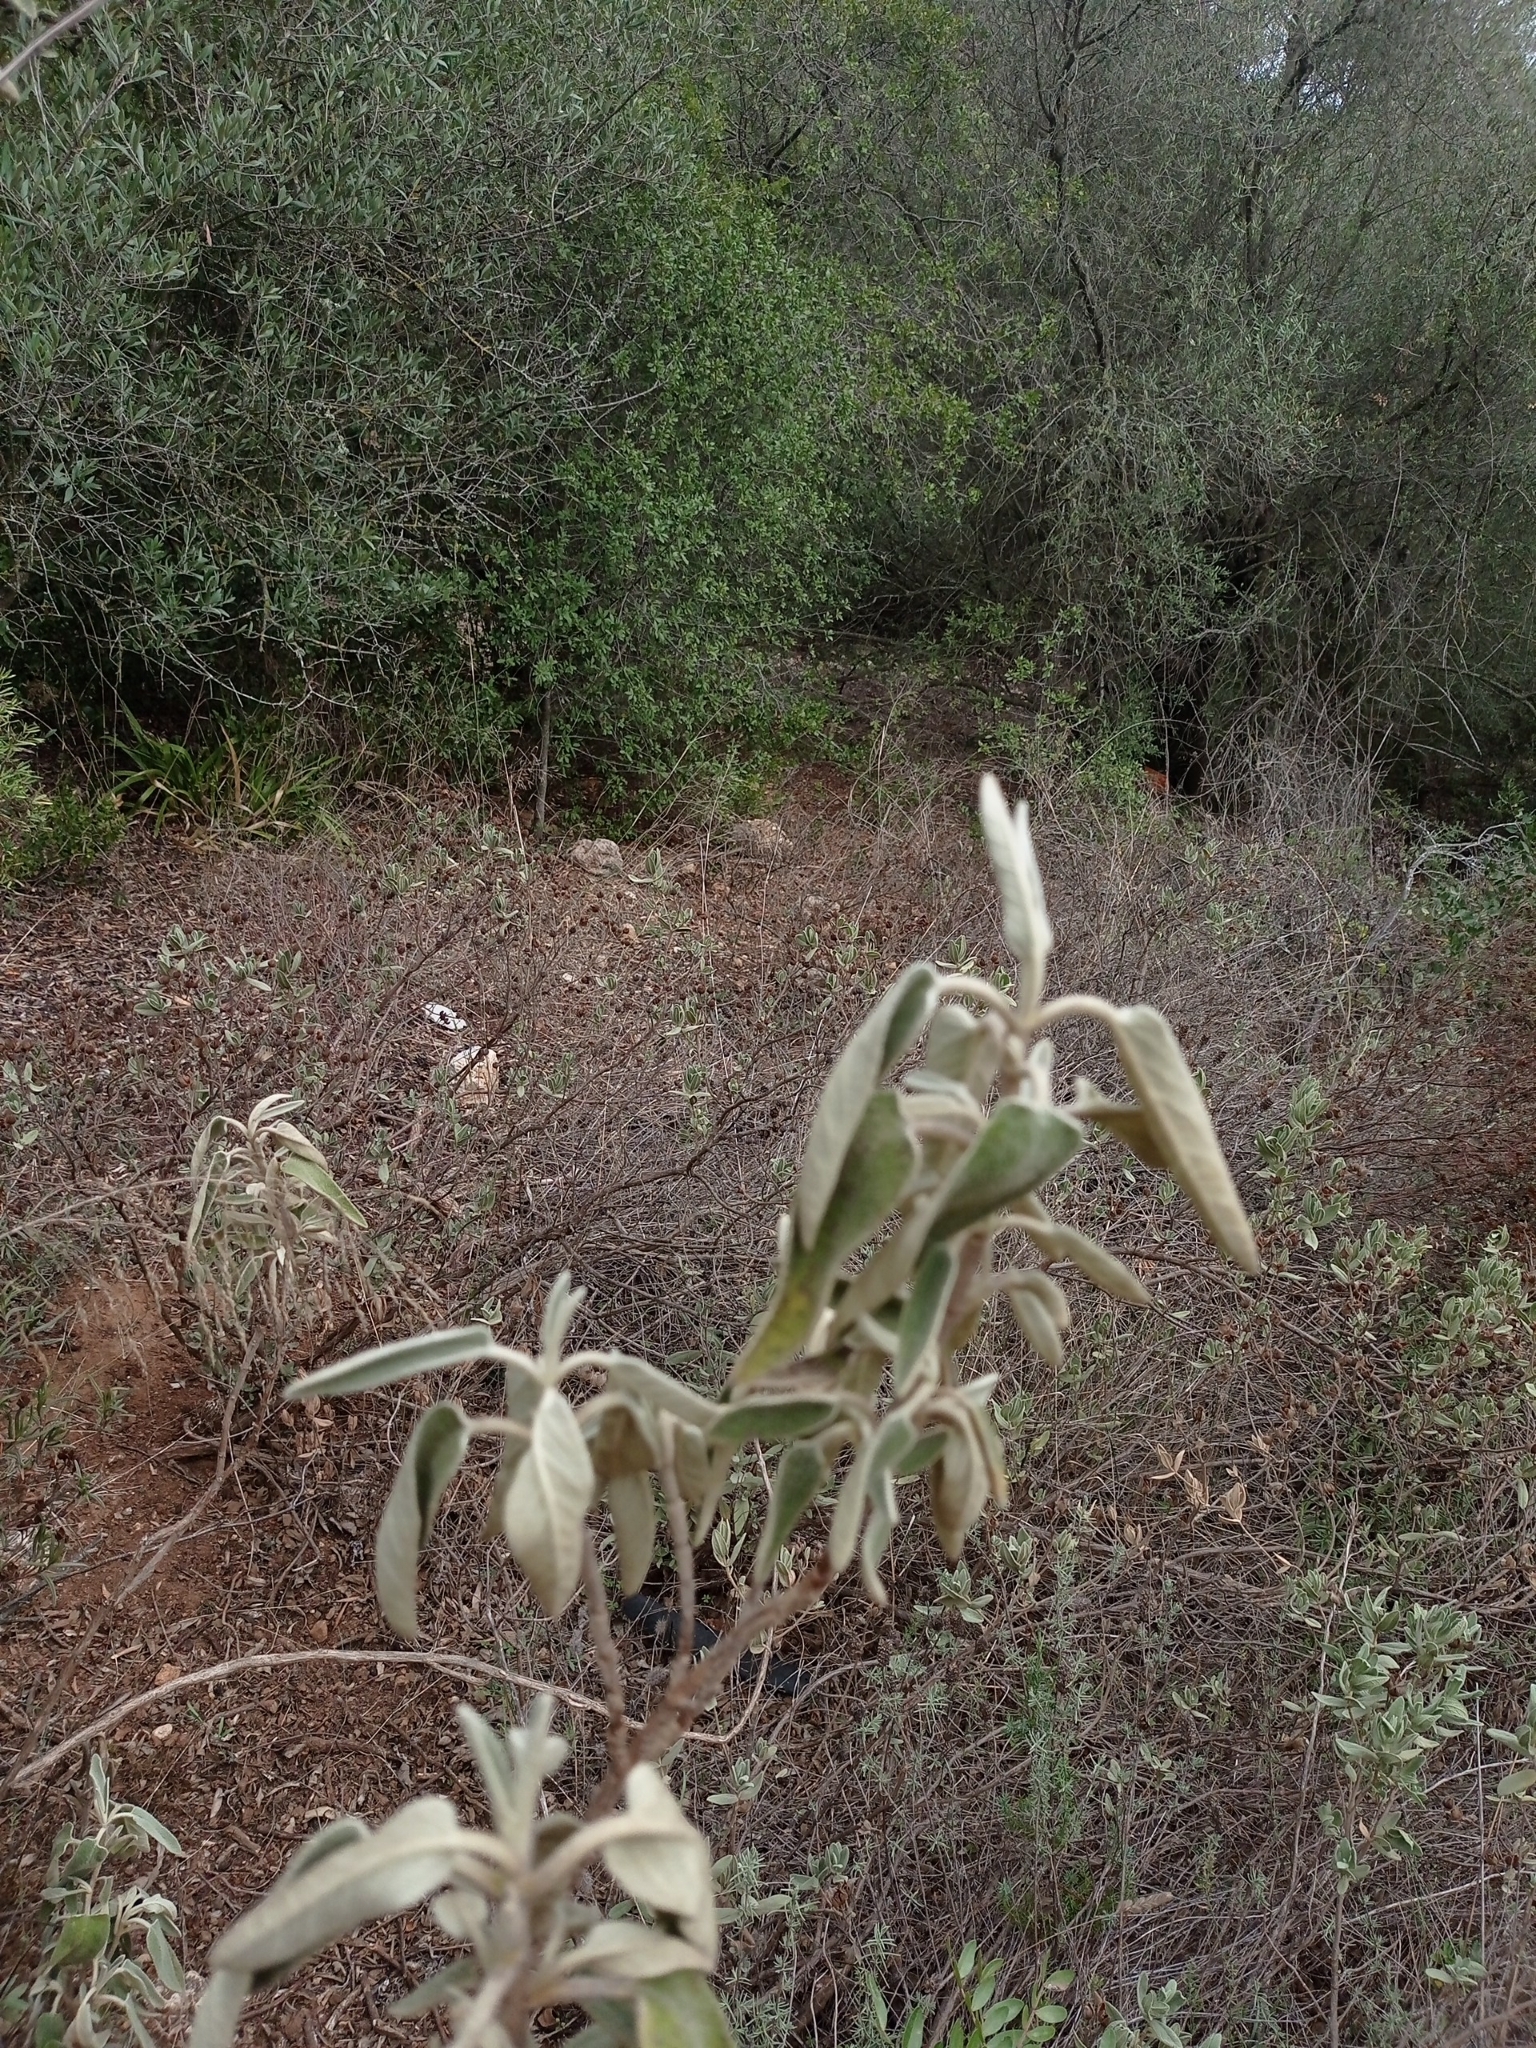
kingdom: Plantae
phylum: Tracheophyta
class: Magnoliopsida
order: Lamiales
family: Lamiaceae
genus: Phlomis
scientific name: Phlomis purpurea
